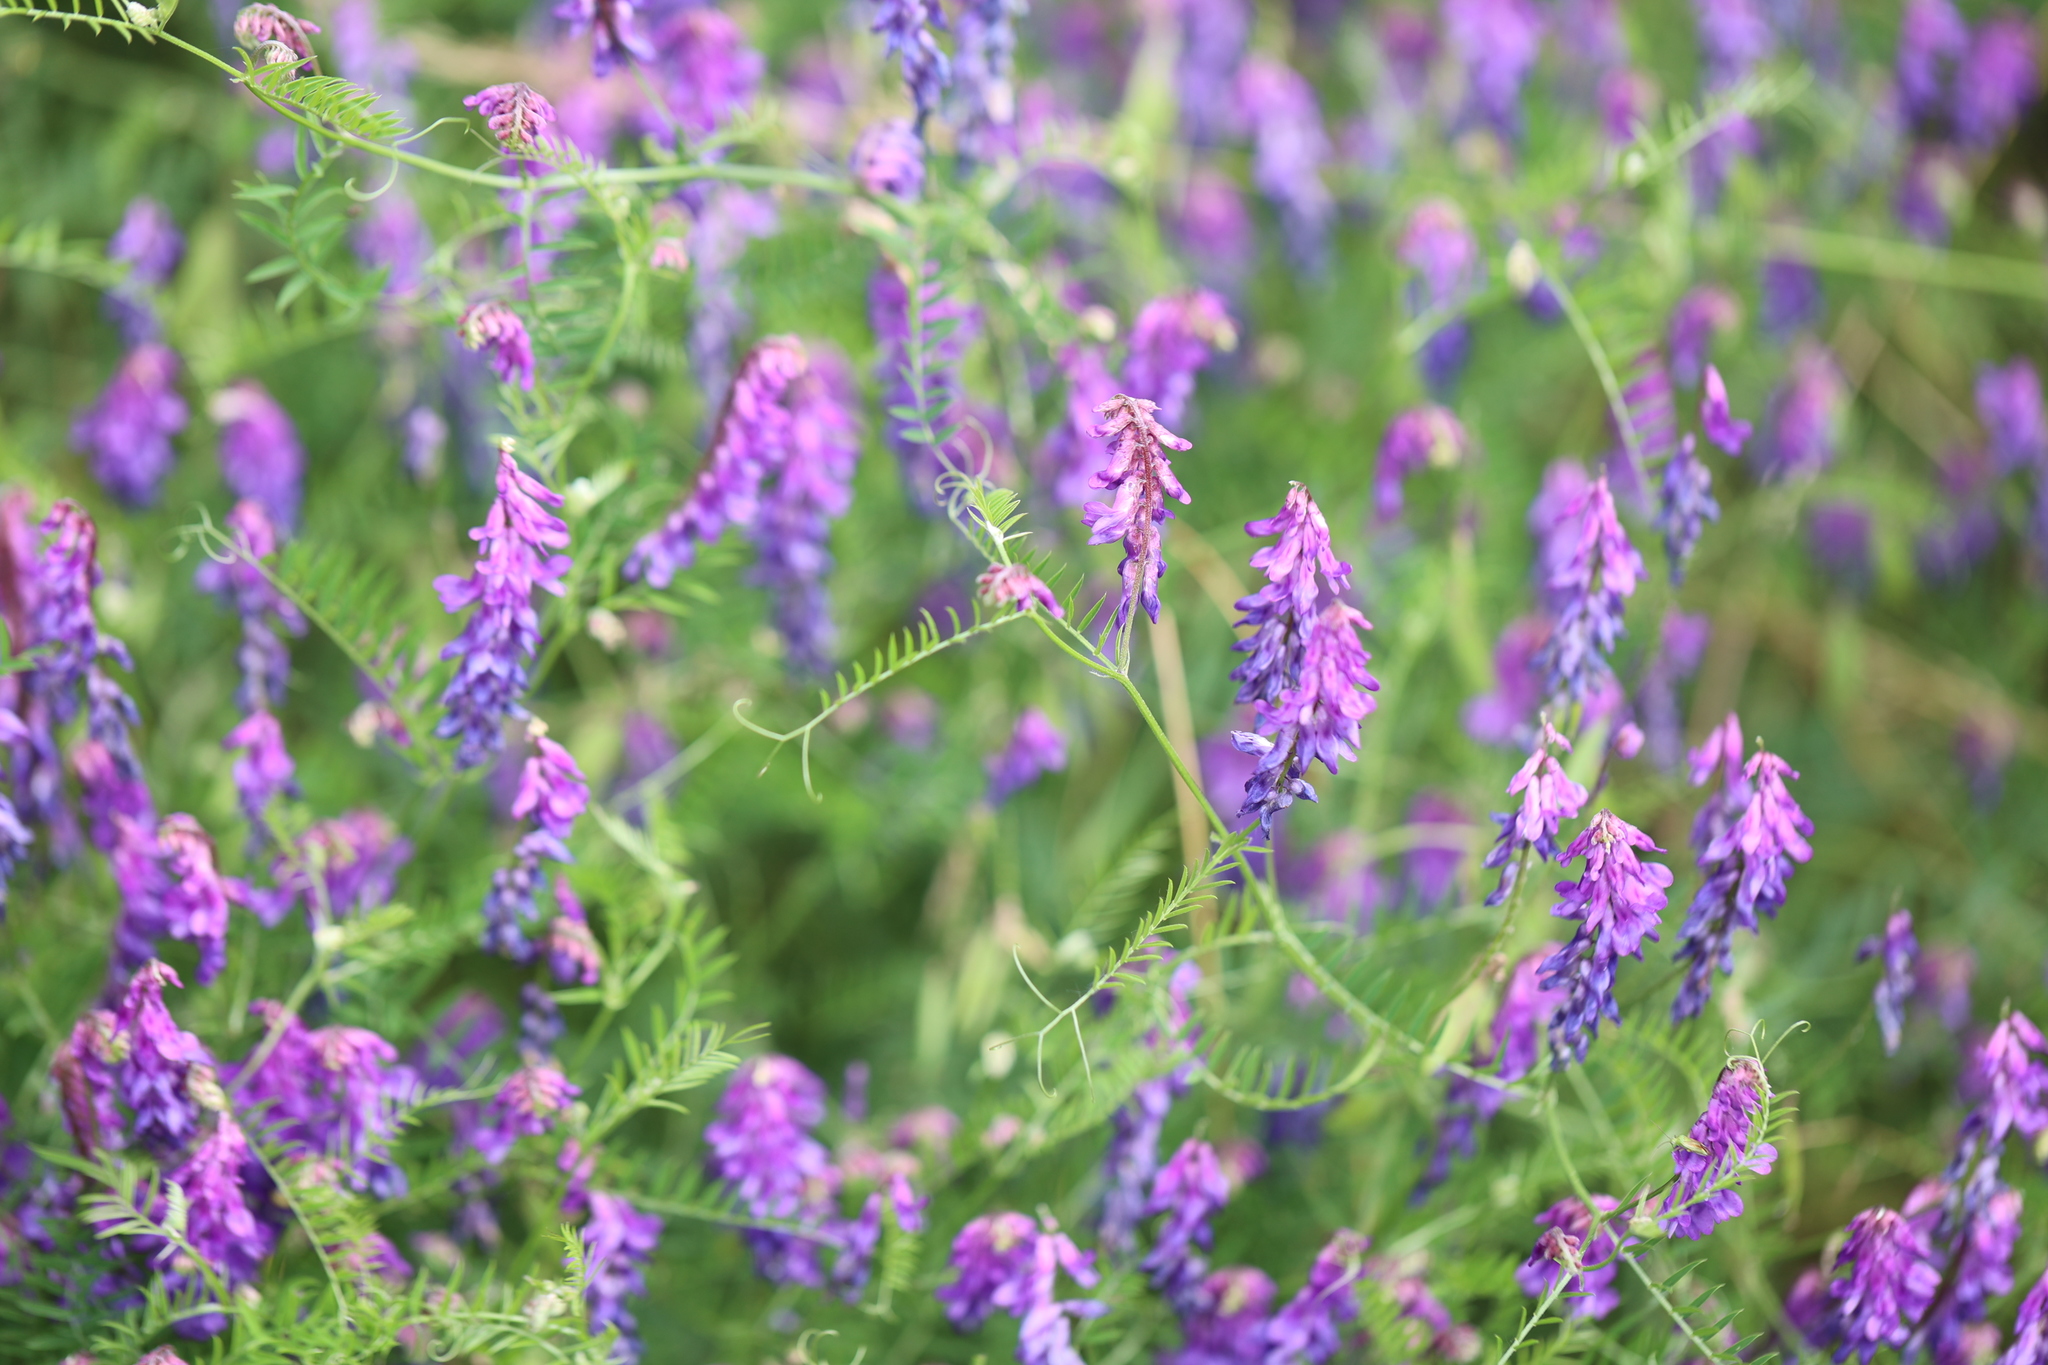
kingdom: Plantae
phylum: Tracheophyta
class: Magnoliopsida
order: Fabales
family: Fabaceae
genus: Vicia
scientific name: Vicia cracca
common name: Bird vetch
